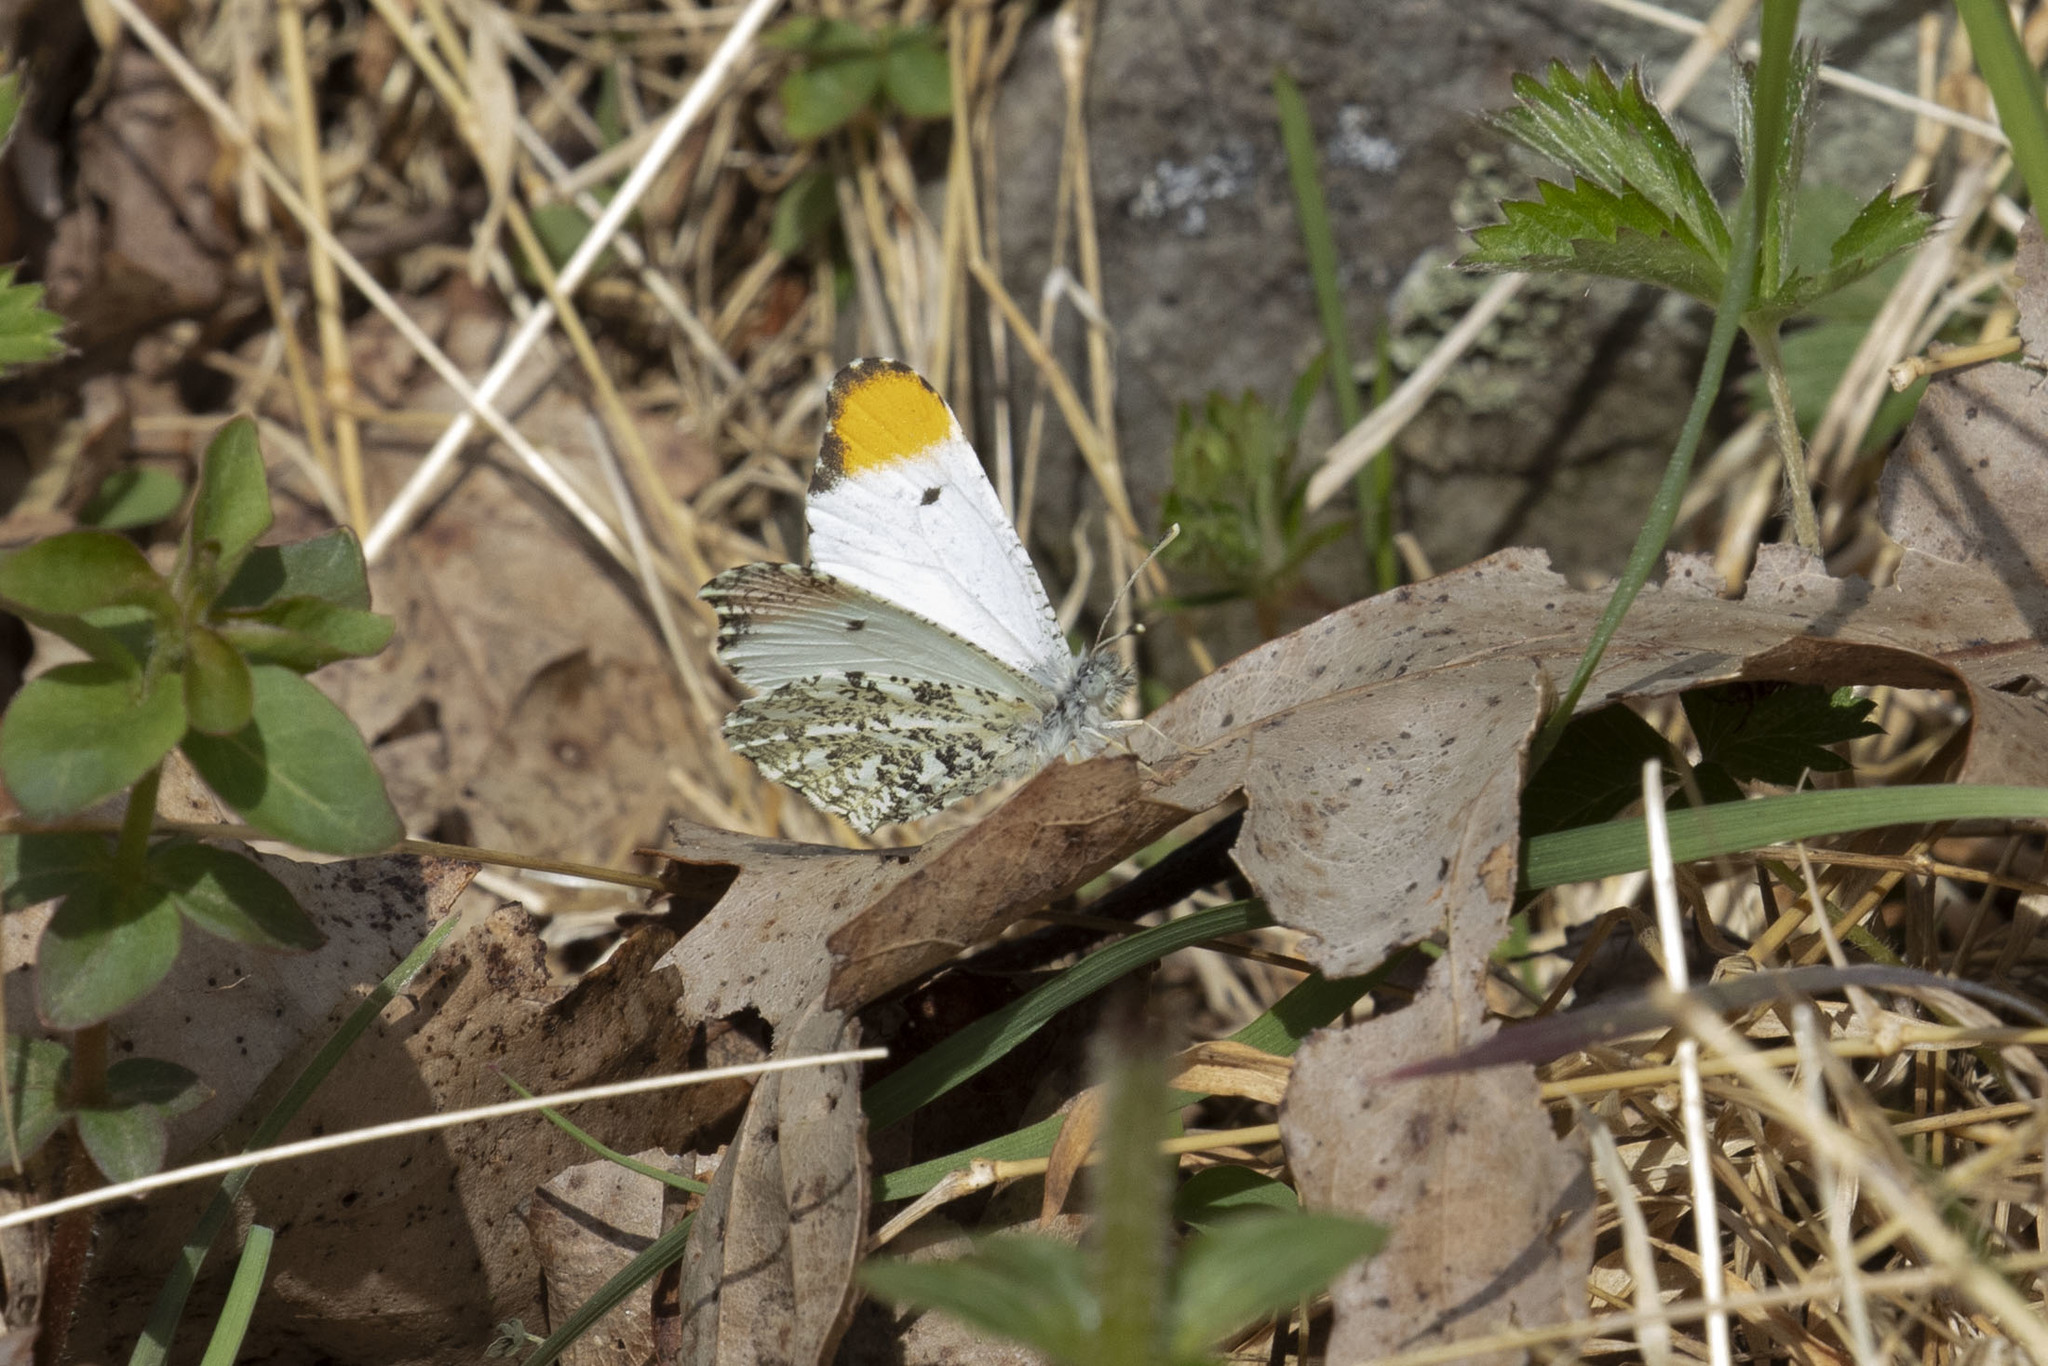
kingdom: Animalia
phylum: Arthropoda
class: Insecta
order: Lepidoptera
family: Pieridae
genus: Anthocharis
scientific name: Anthocharis midea
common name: Falcate orangetip
